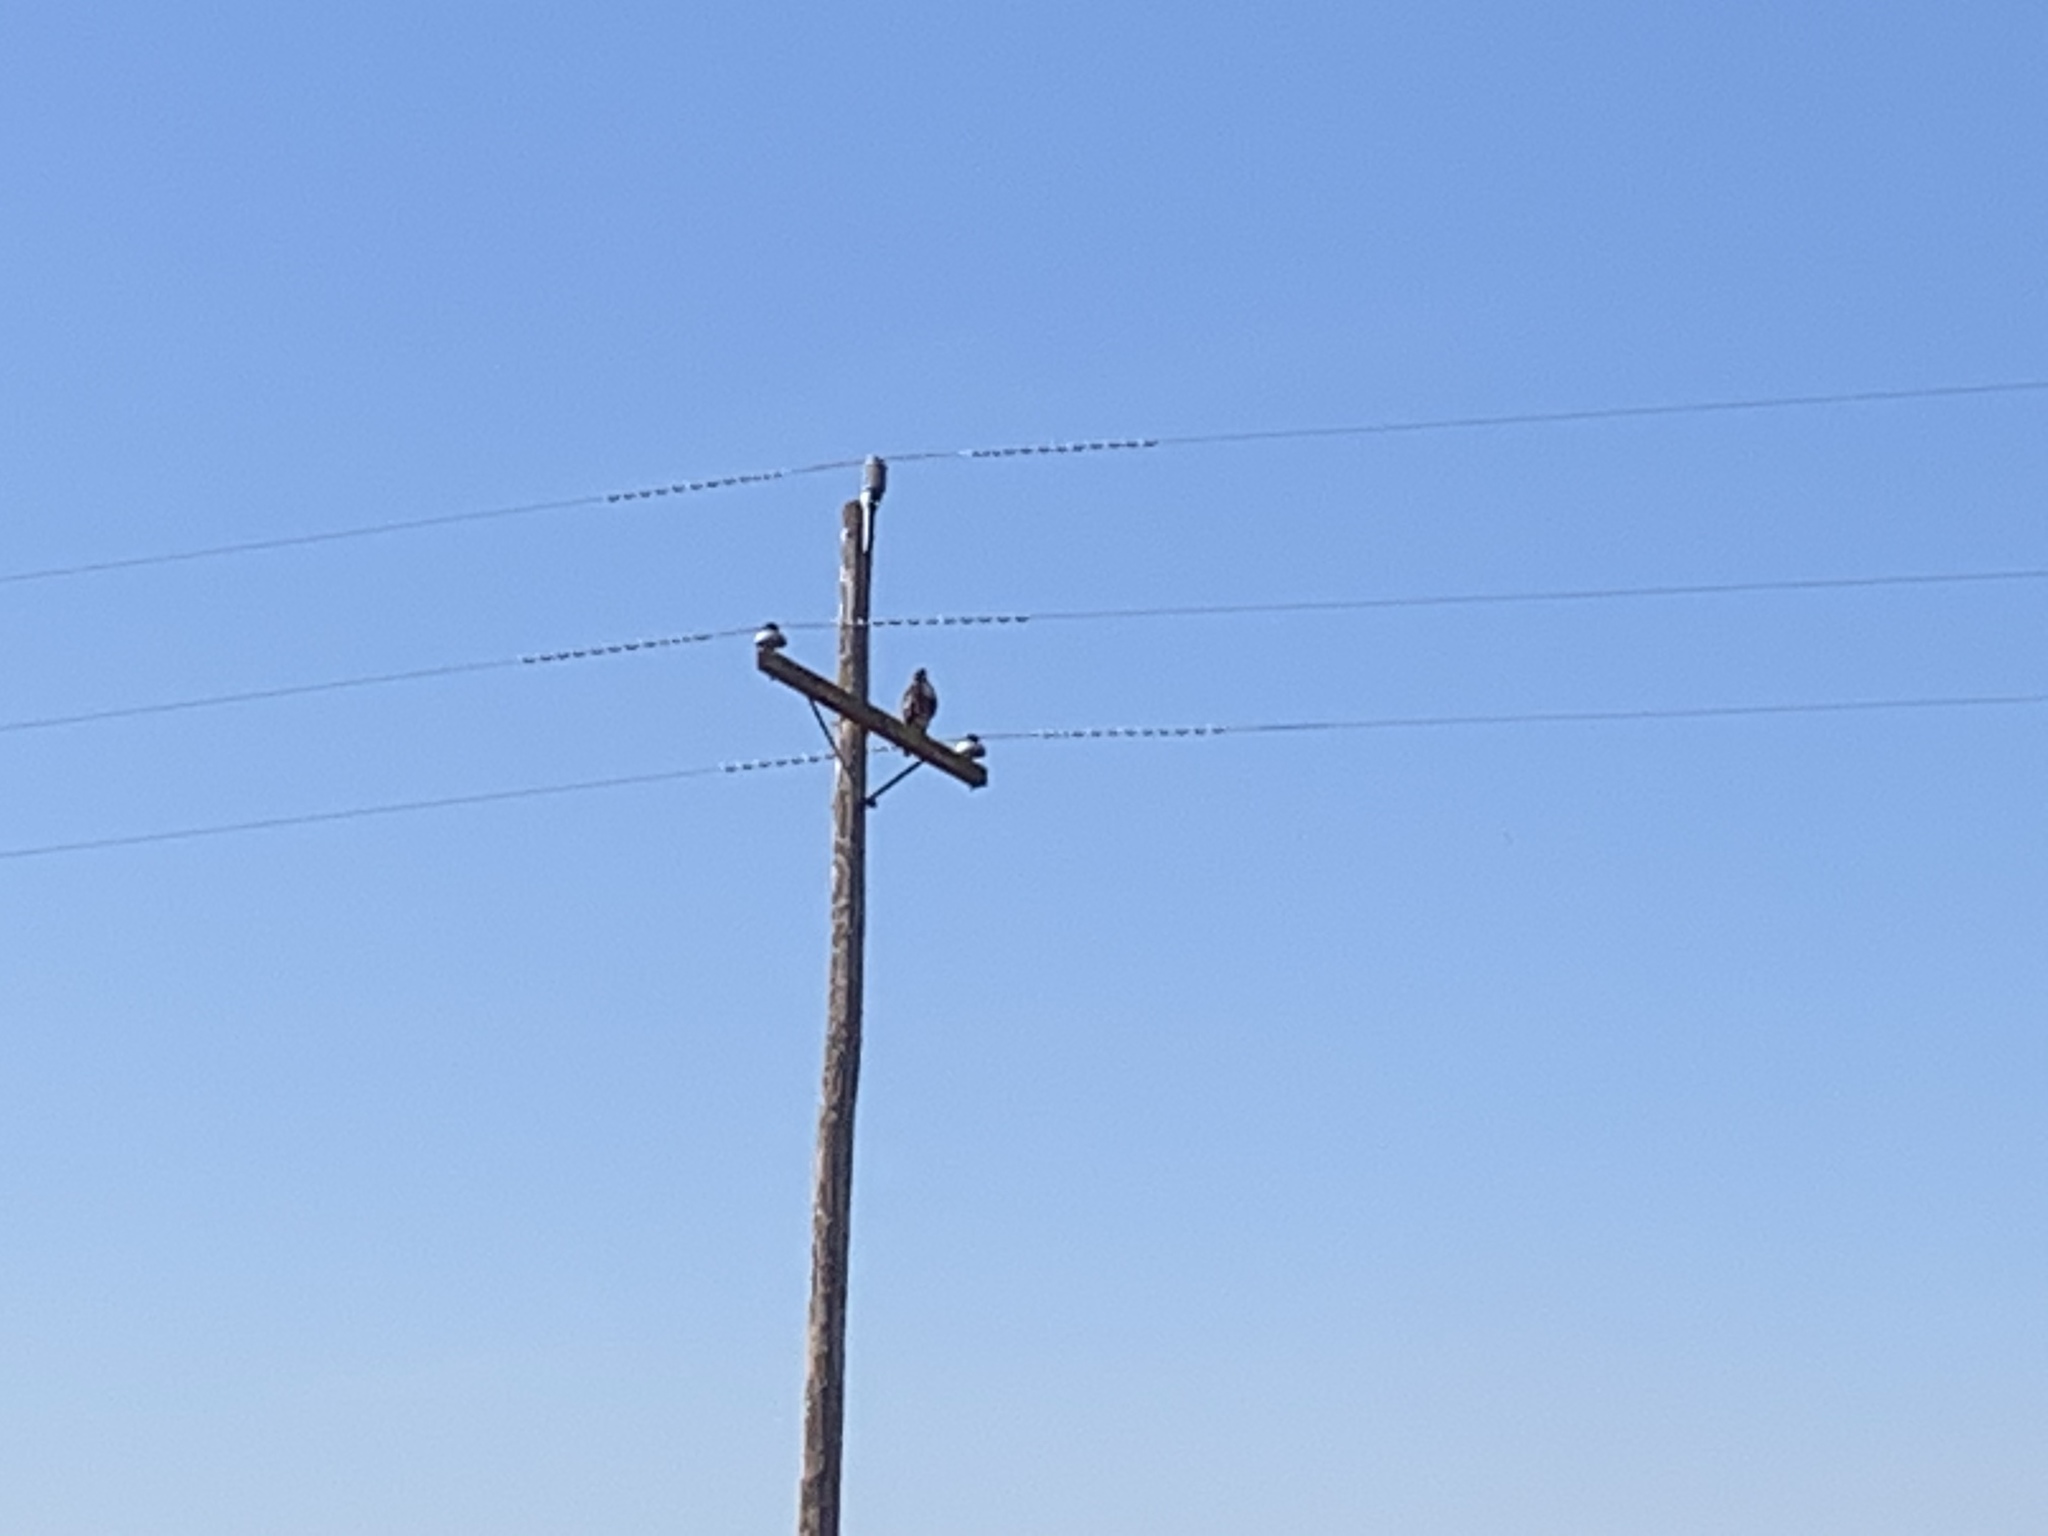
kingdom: Animalia
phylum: Chordata
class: Aves
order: Accipitriformes
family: Accipitridae
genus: Buteo
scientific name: Buteo jamaicensis
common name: Red-tailed hawk
